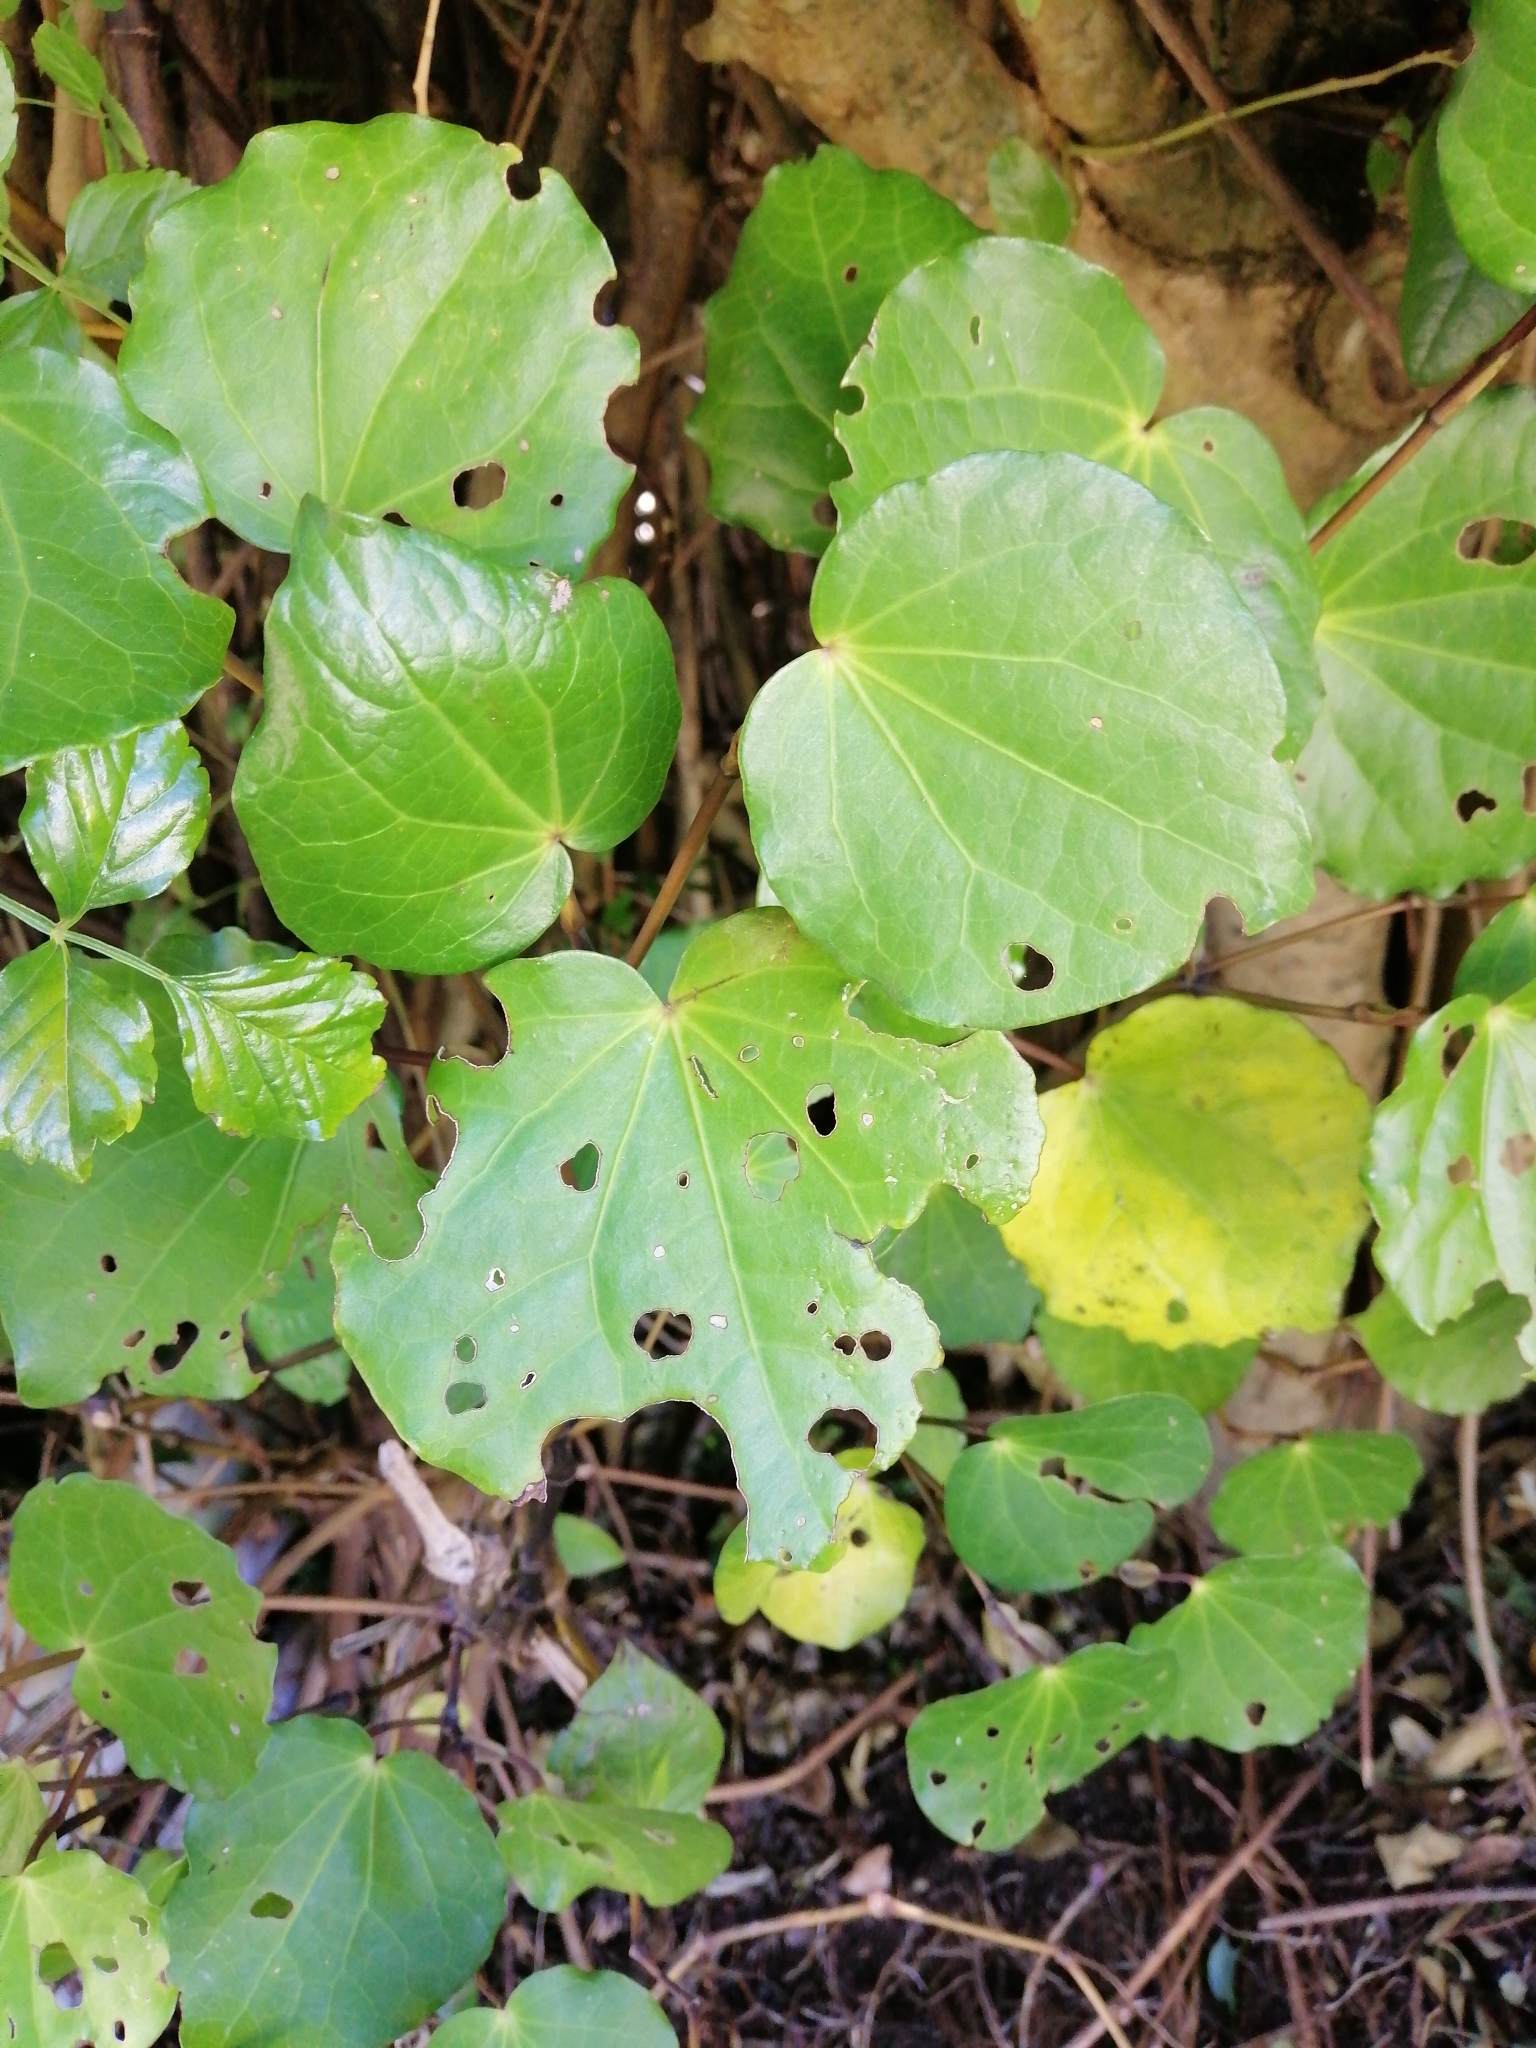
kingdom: Plantae
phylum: Tracheophyta
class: Magnoliopsida
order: Piperales
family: Piperaceae
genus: Macropiper
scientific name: Macropiper excelsum
